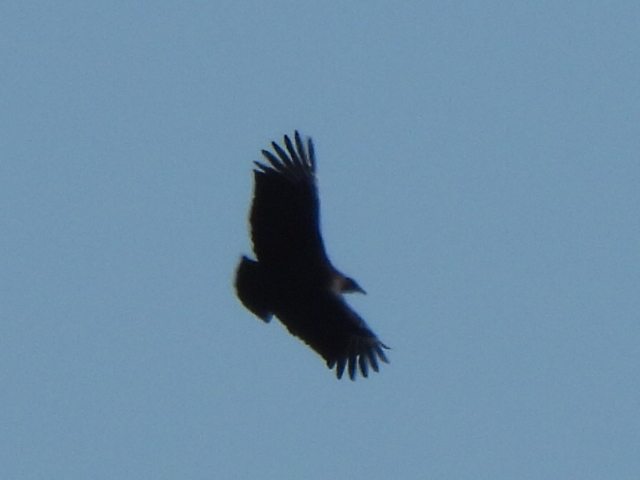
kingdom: Animalia
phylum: Chordata
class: Aves
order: Accipitriformes
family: Cathartidae
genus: Coragyps
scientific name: Coragyps atratus
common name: Black vulture
